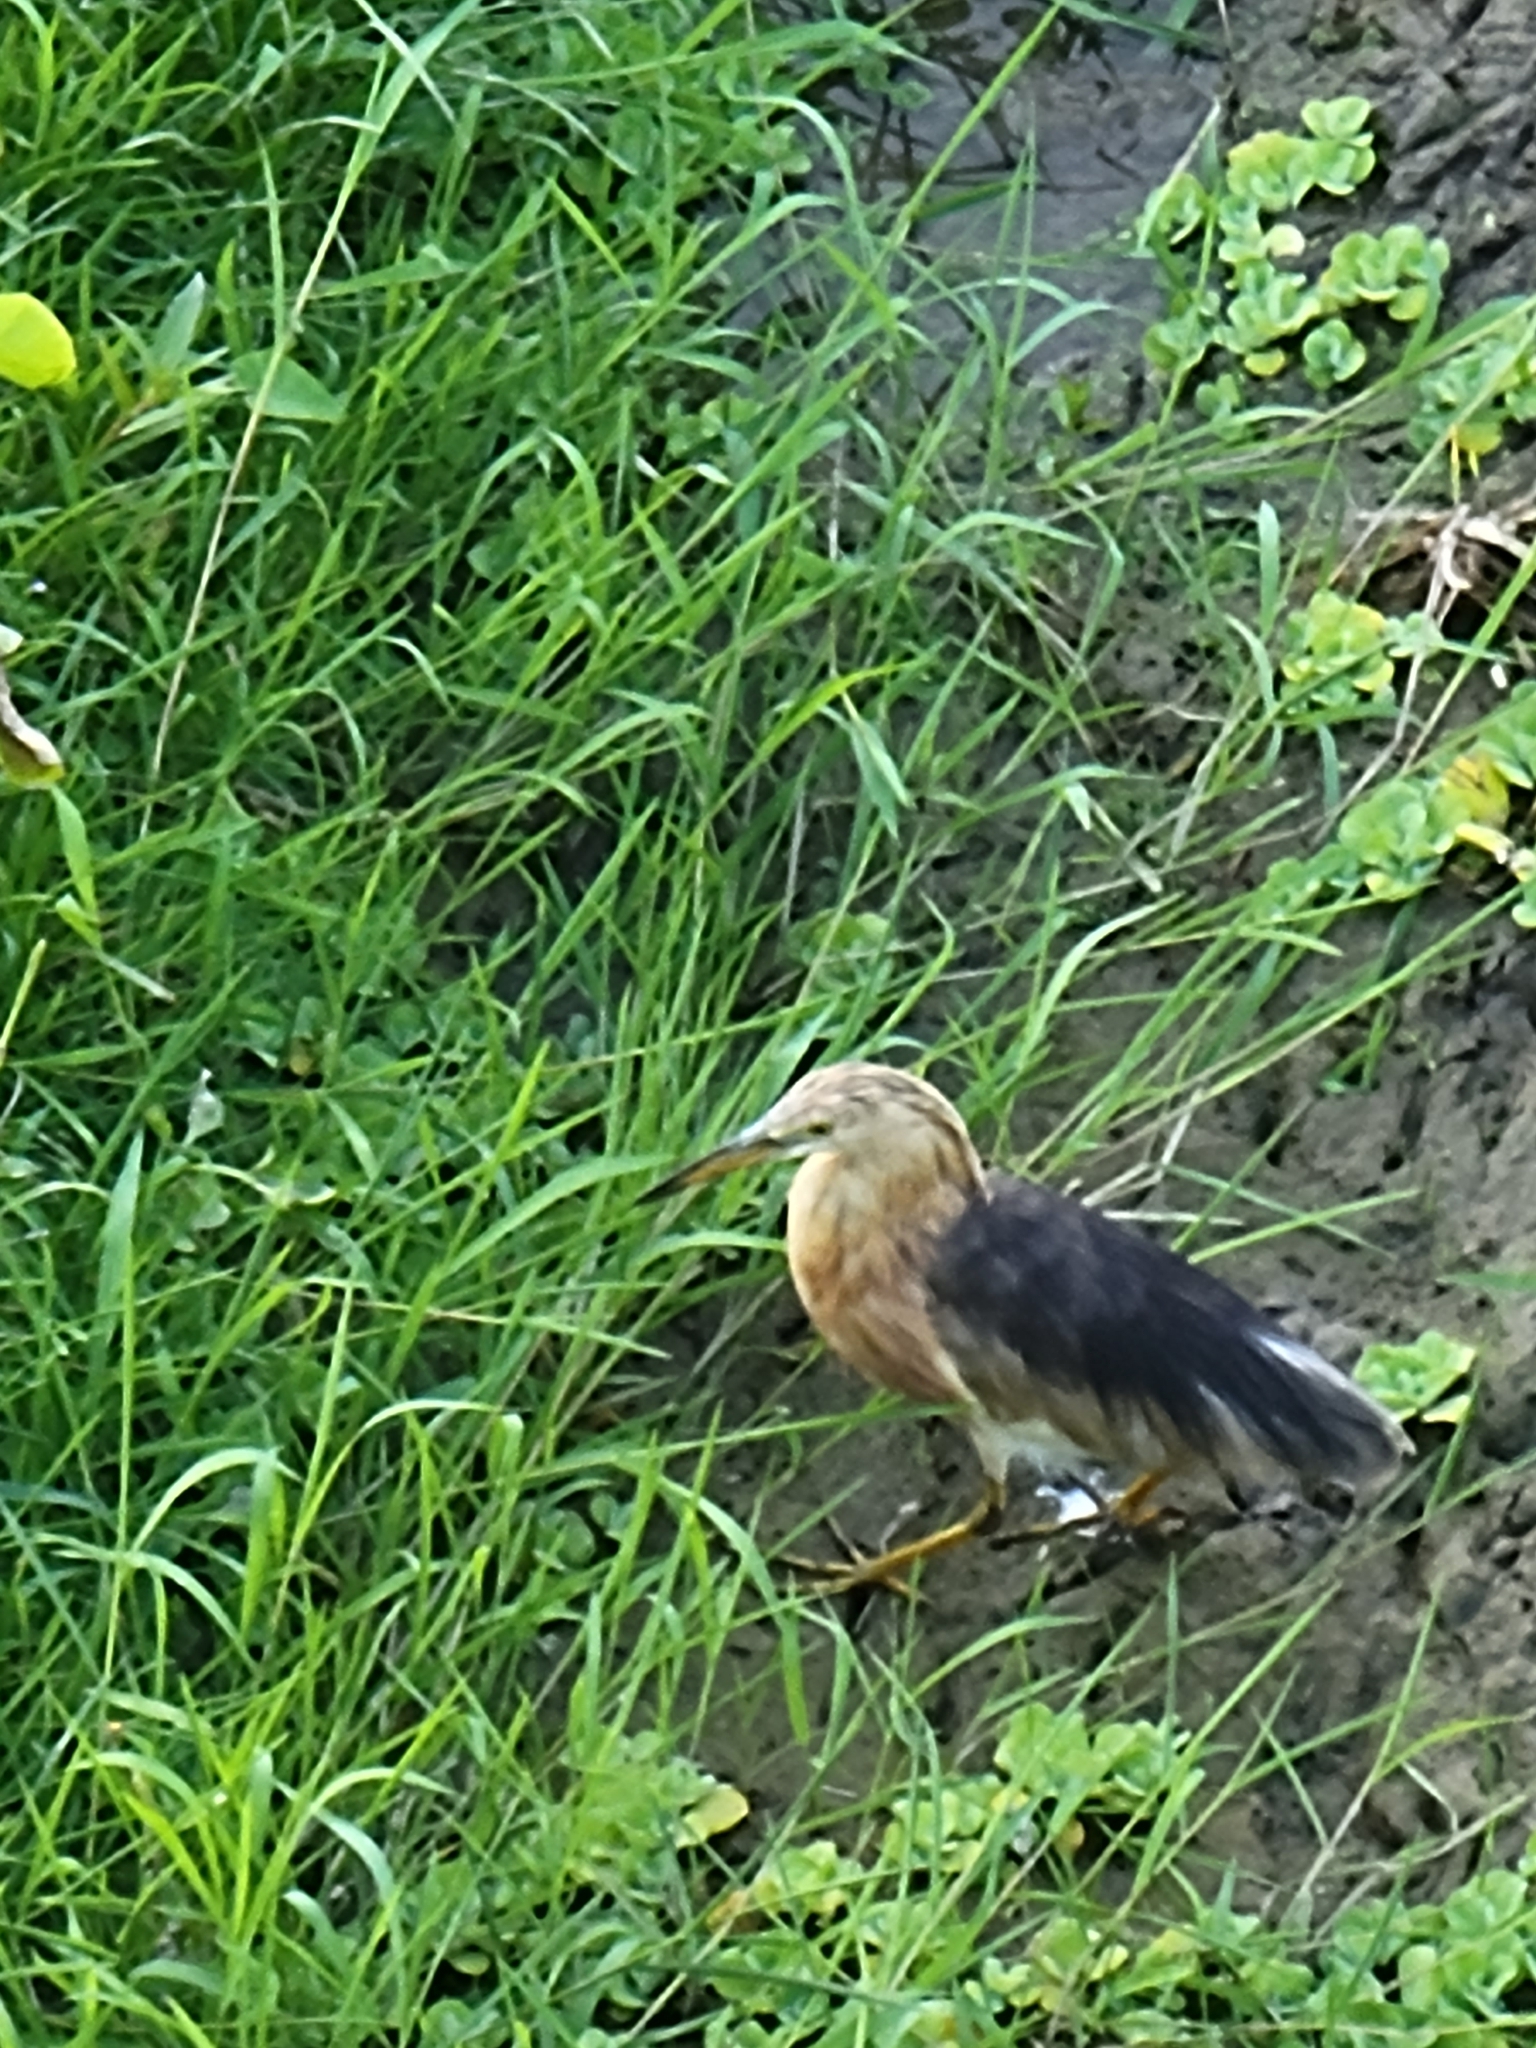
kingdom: Animalia
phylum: Chordata
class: Aves
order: Pelecaniformes
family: Ardeidae
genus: Ardeola
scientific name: Ardeola speciosa
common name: Javan pond heron
